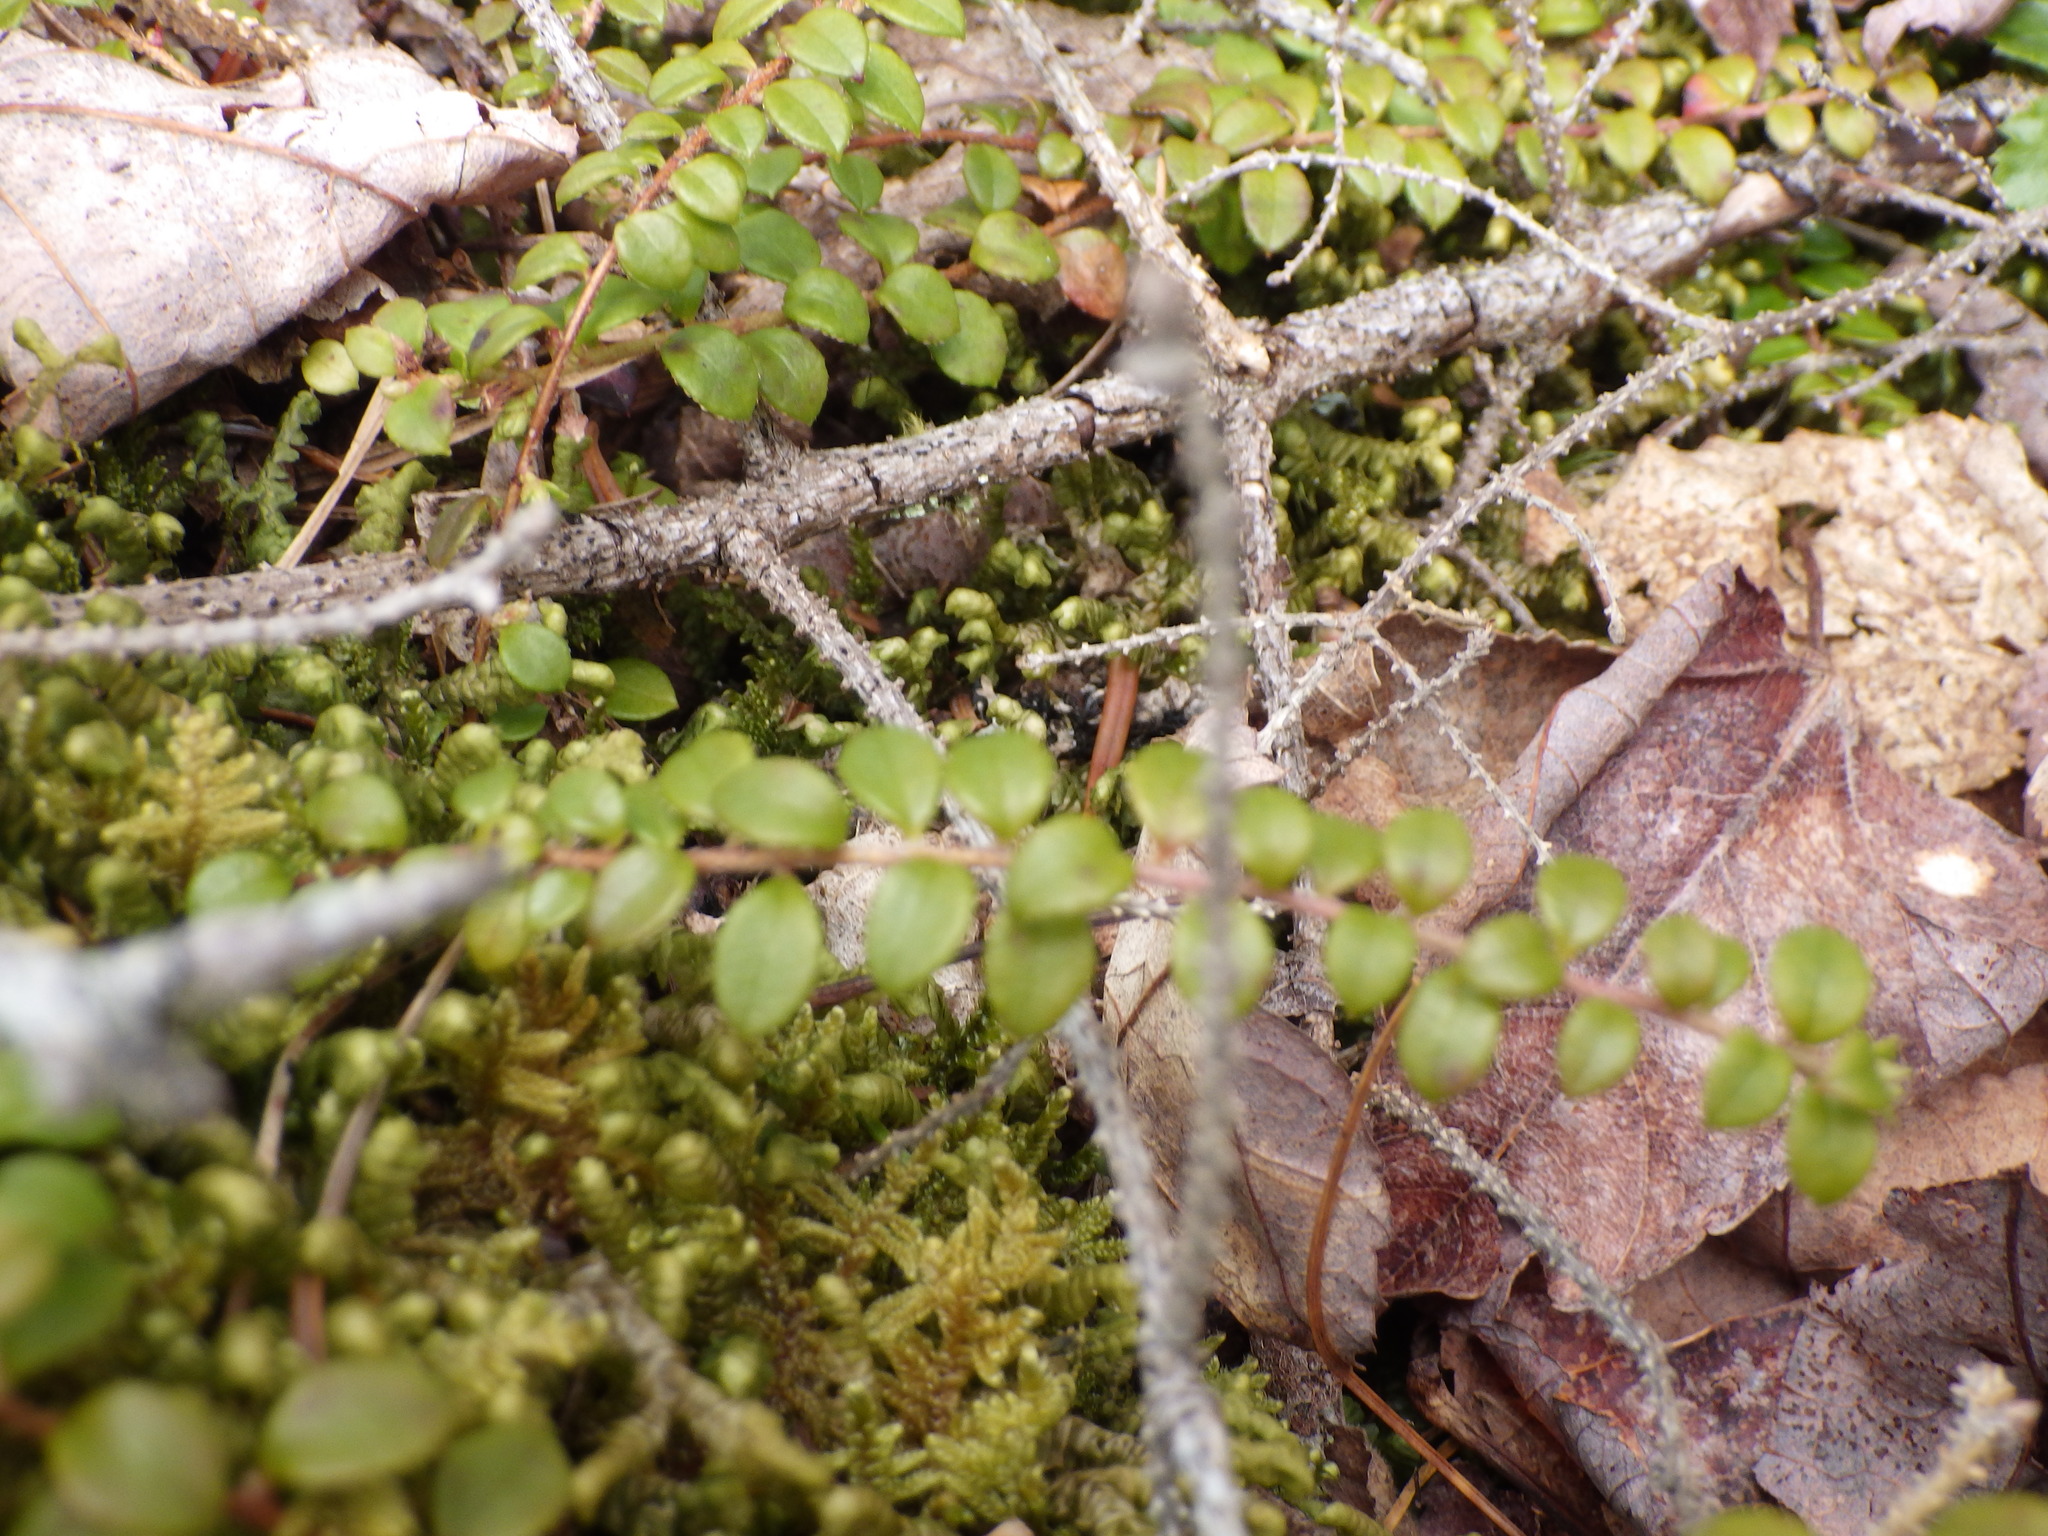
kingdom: Plantae
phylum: Tracheophyta
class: Magnoliopsida
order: Ericales
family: Ericaceae
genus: Gaultheria
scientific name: Gaultheria hispidula
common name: Cancer wintergreen
